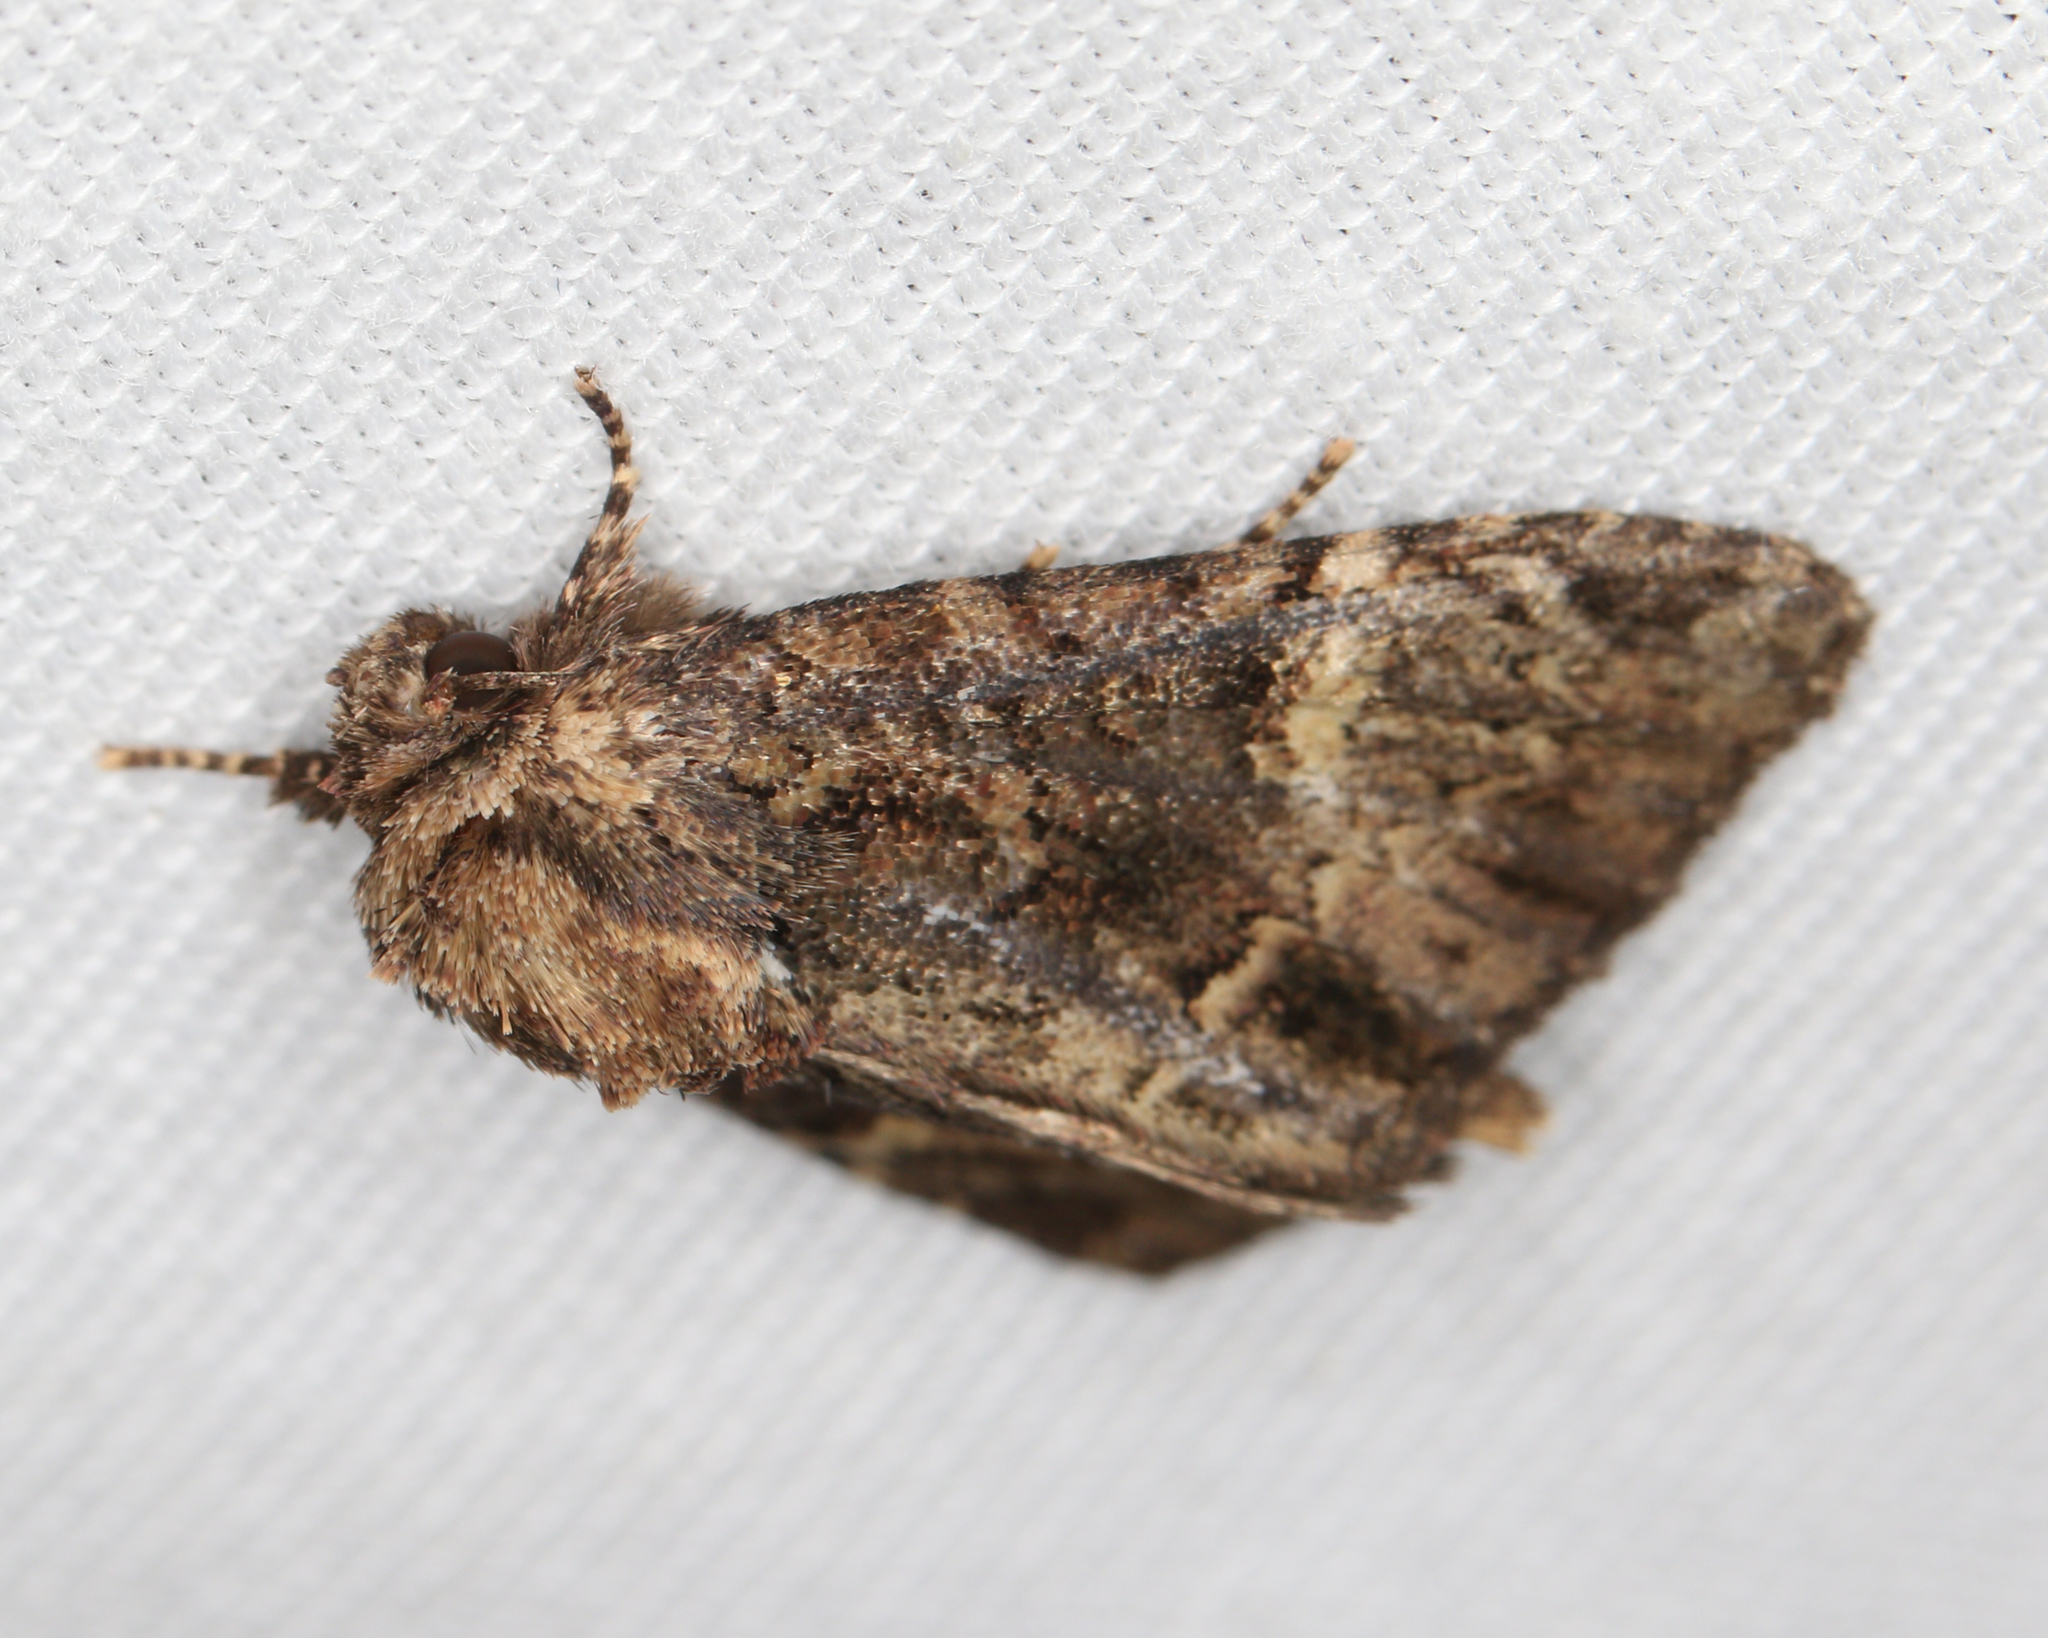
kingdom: Animalia
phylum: Arthropoda
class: Insecta
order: Lepidoptera
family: Noctuidae
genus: Phosphila
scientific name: Phosphila turbulenta
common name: Turbulent phosphila moth
